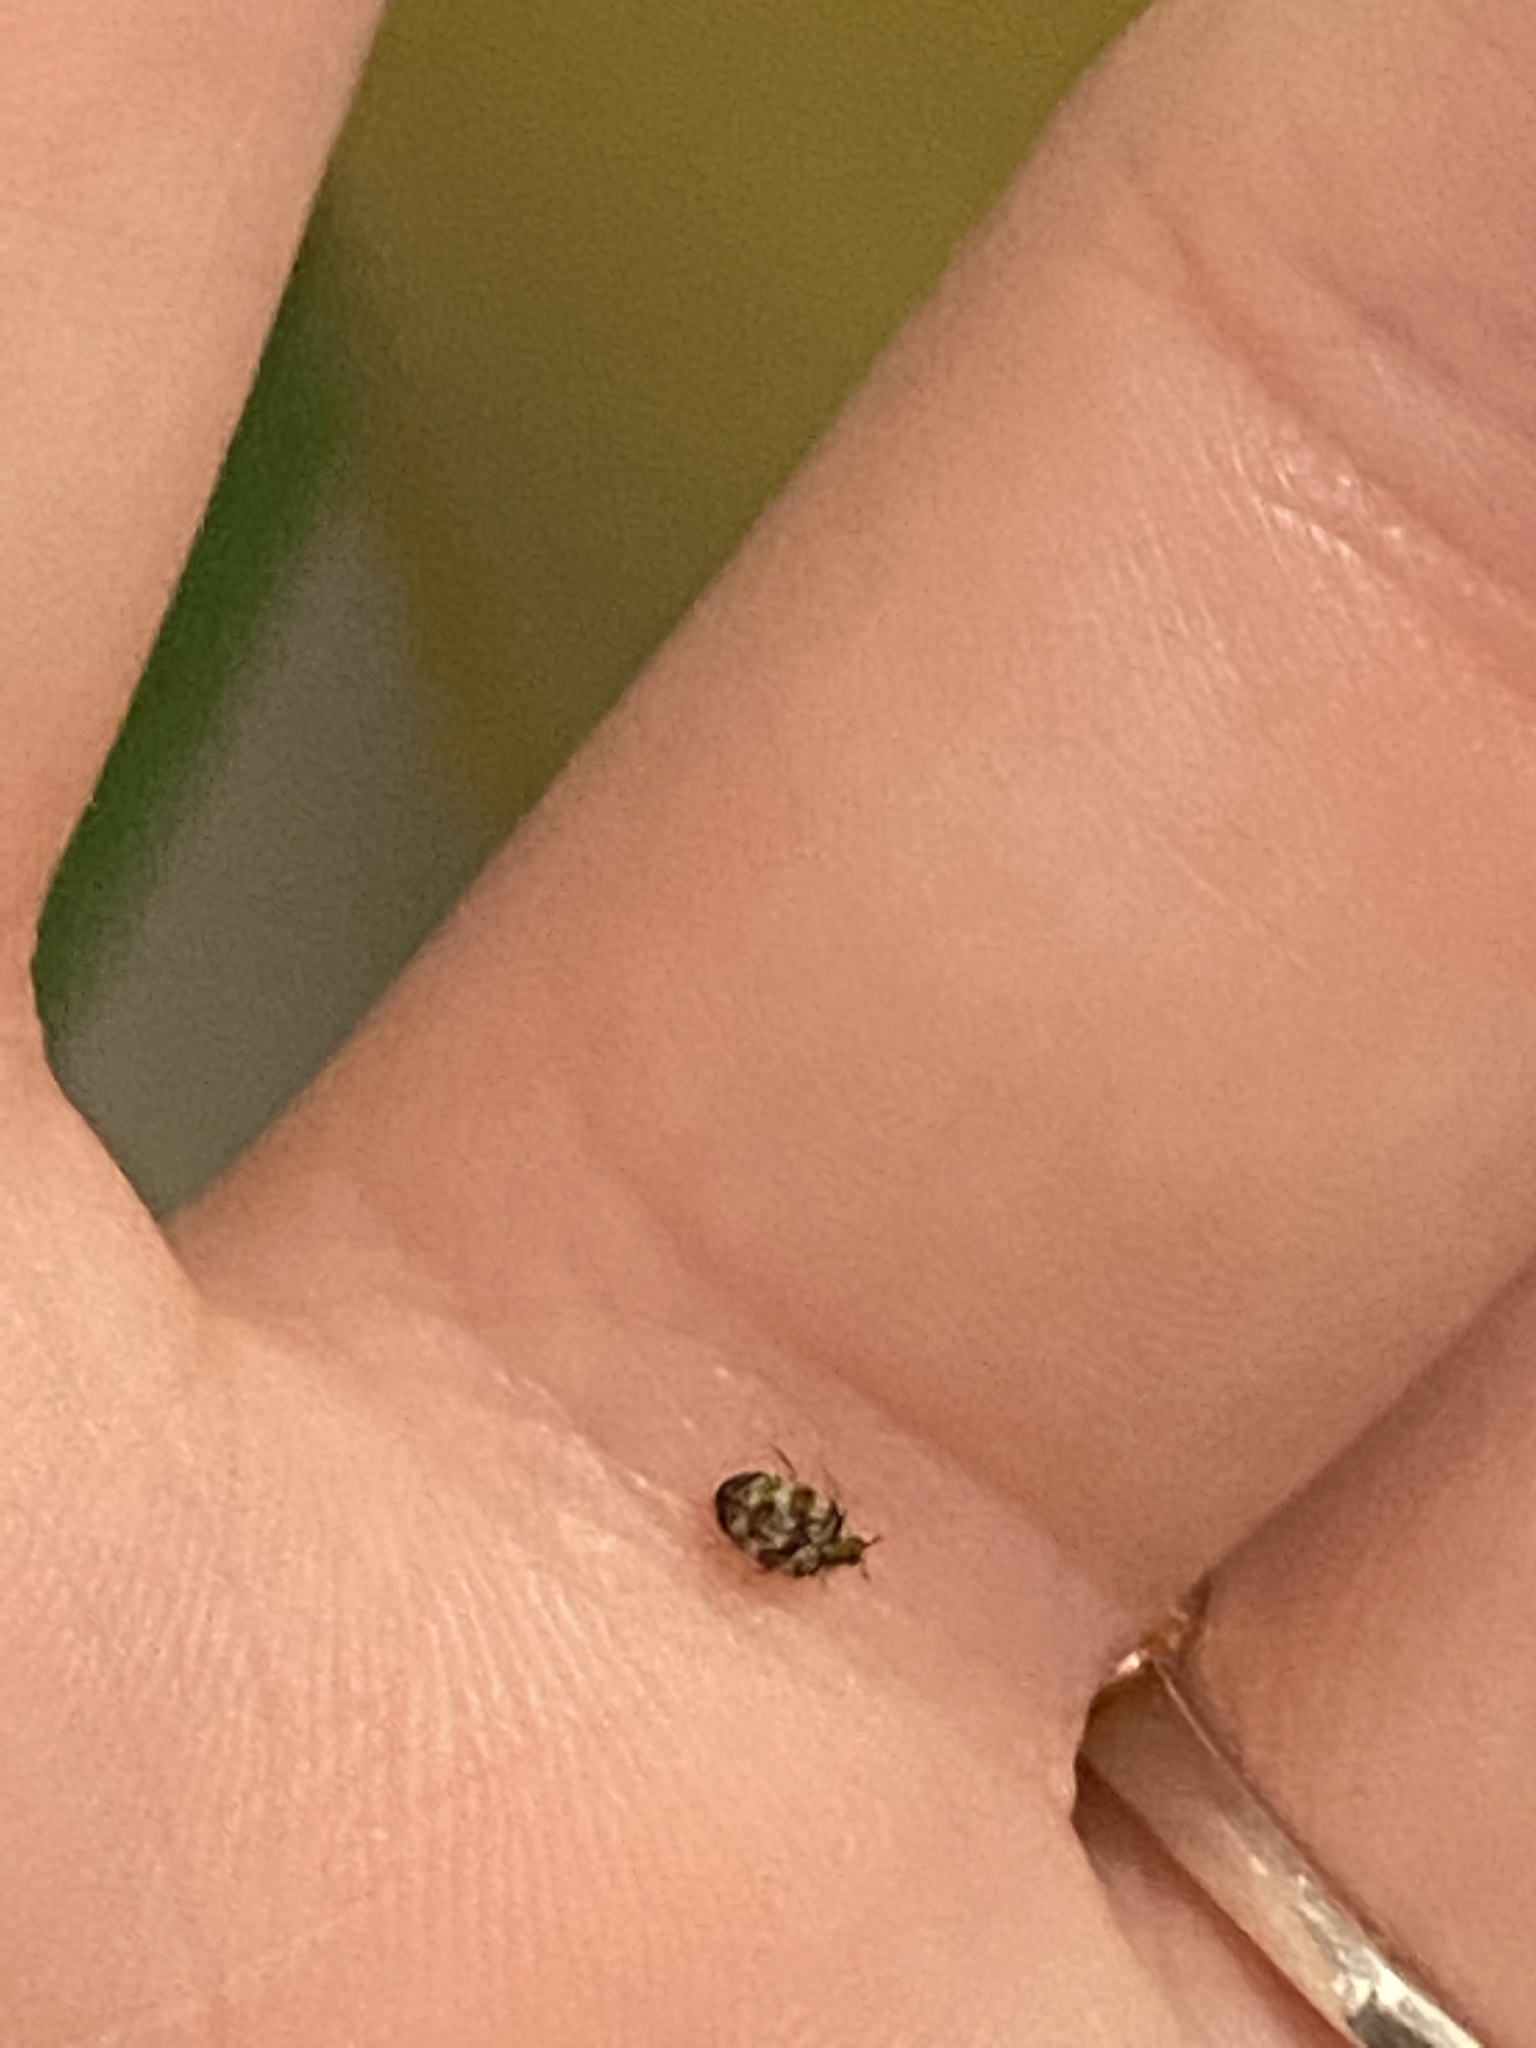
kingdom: Animalia
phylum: Arthropoda
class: Insecta
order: Coleoptera
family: Dermestidae
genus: Anthrenus
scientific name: Anthrenus verbasci
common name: Varied carpet beetle
